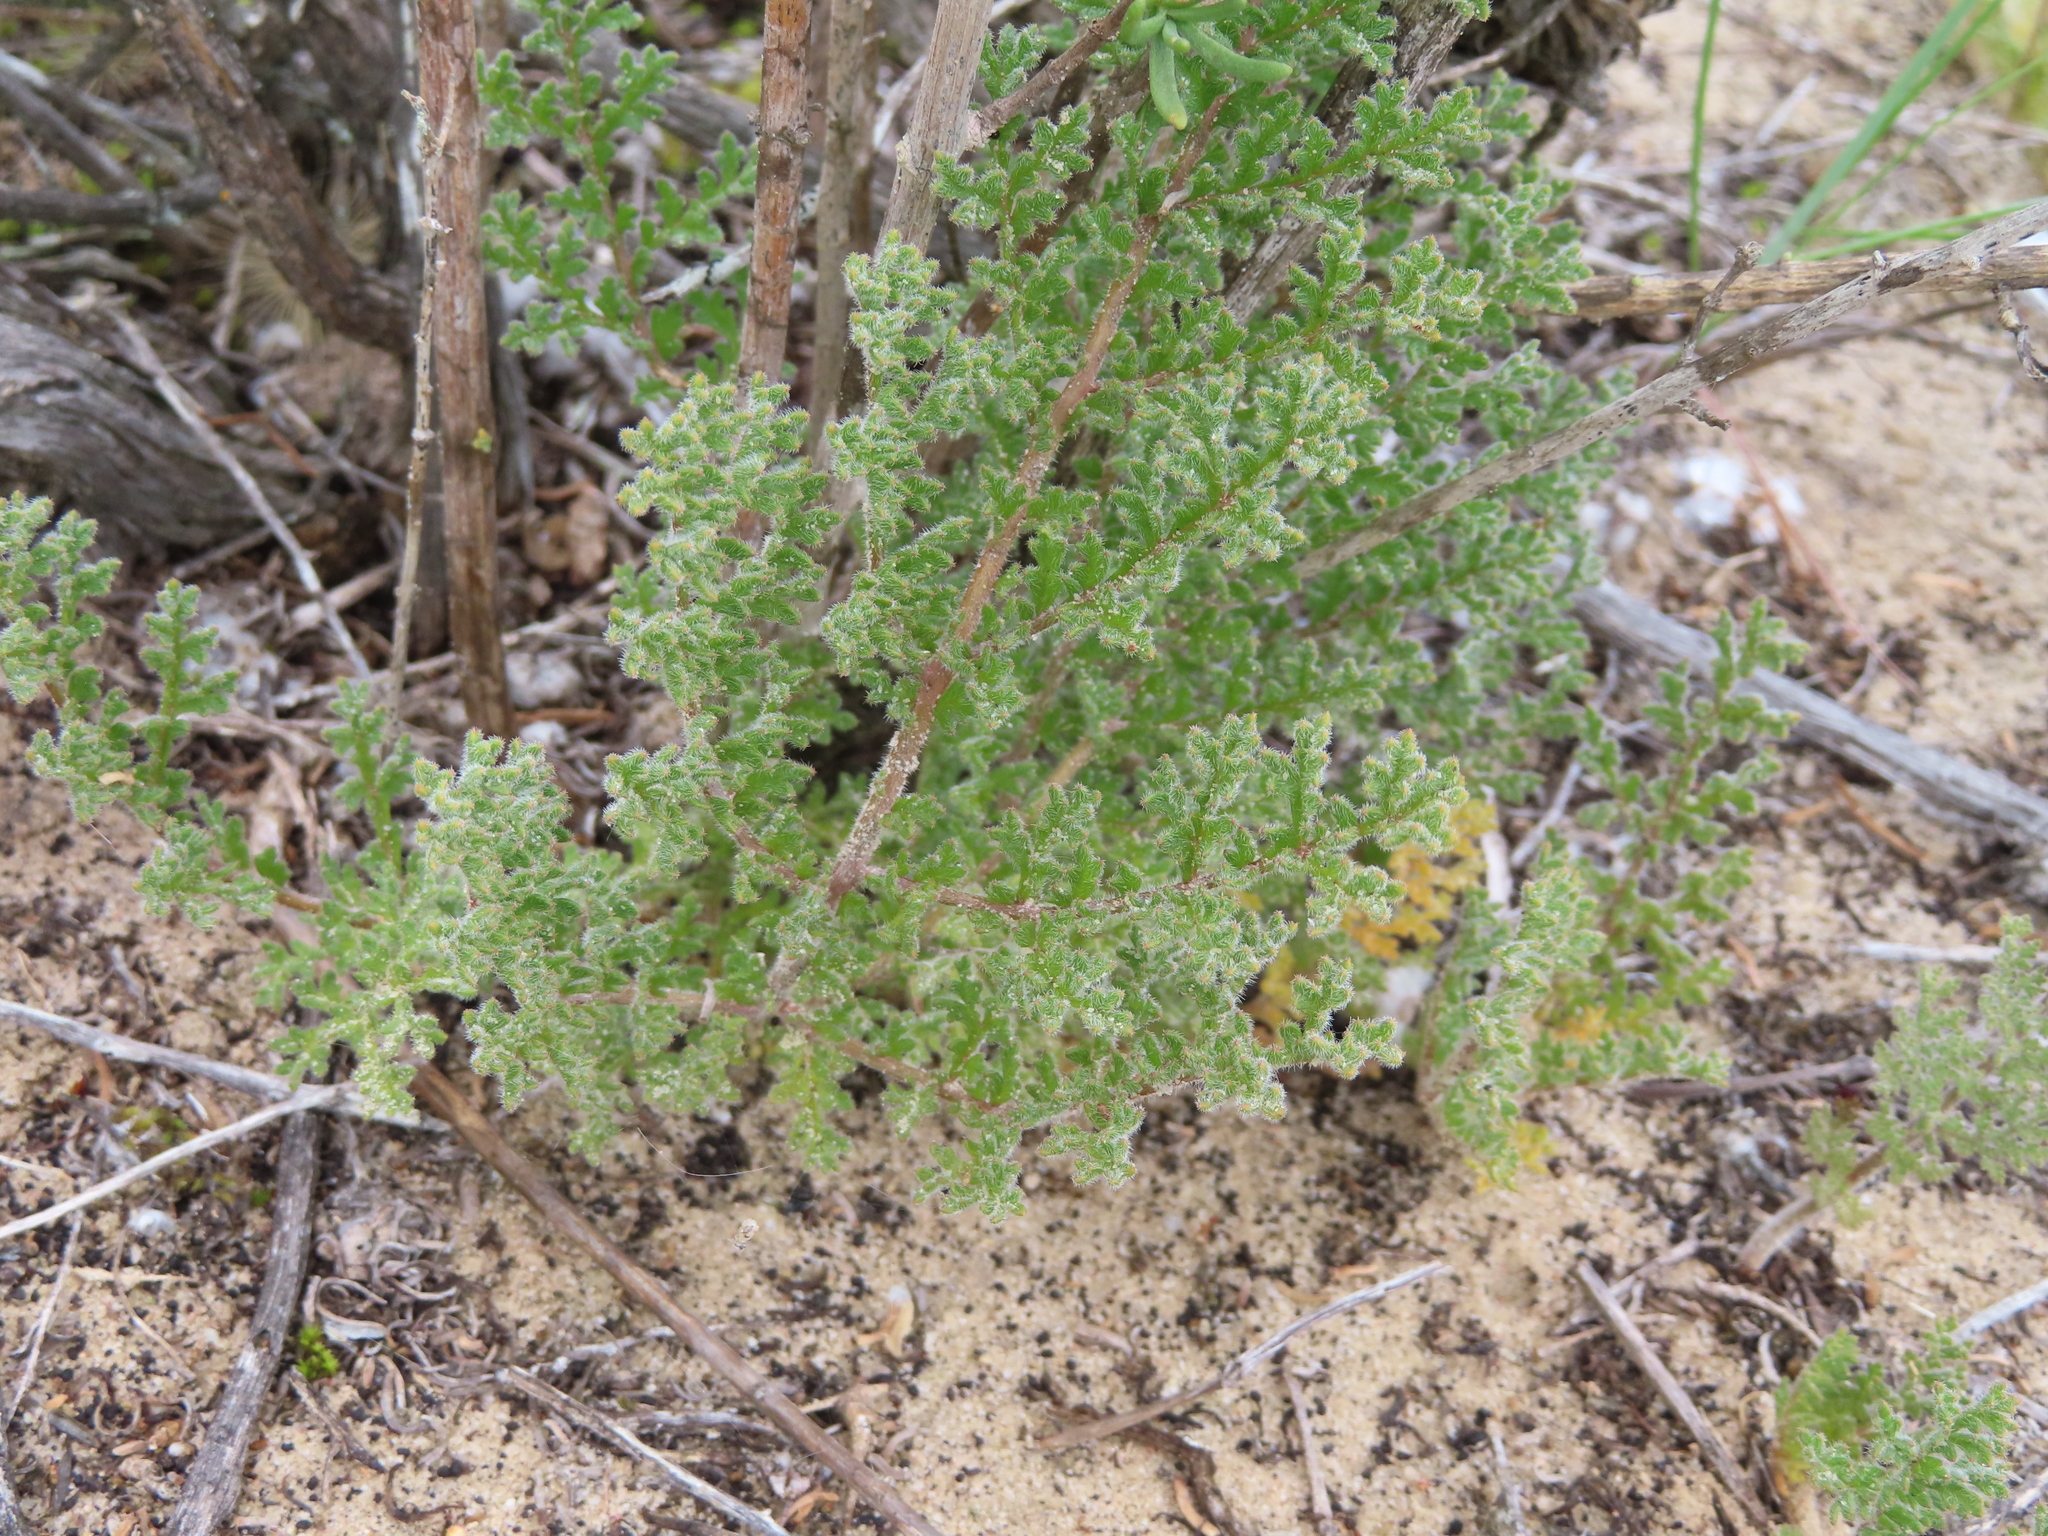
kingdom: Plantae
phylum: Tracheophyta
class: Magnoliopsida
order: Geraniales
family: Geraniaceae
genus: Pelargonium
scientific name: Pelargonium triste
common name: Night-scent pelargonium
